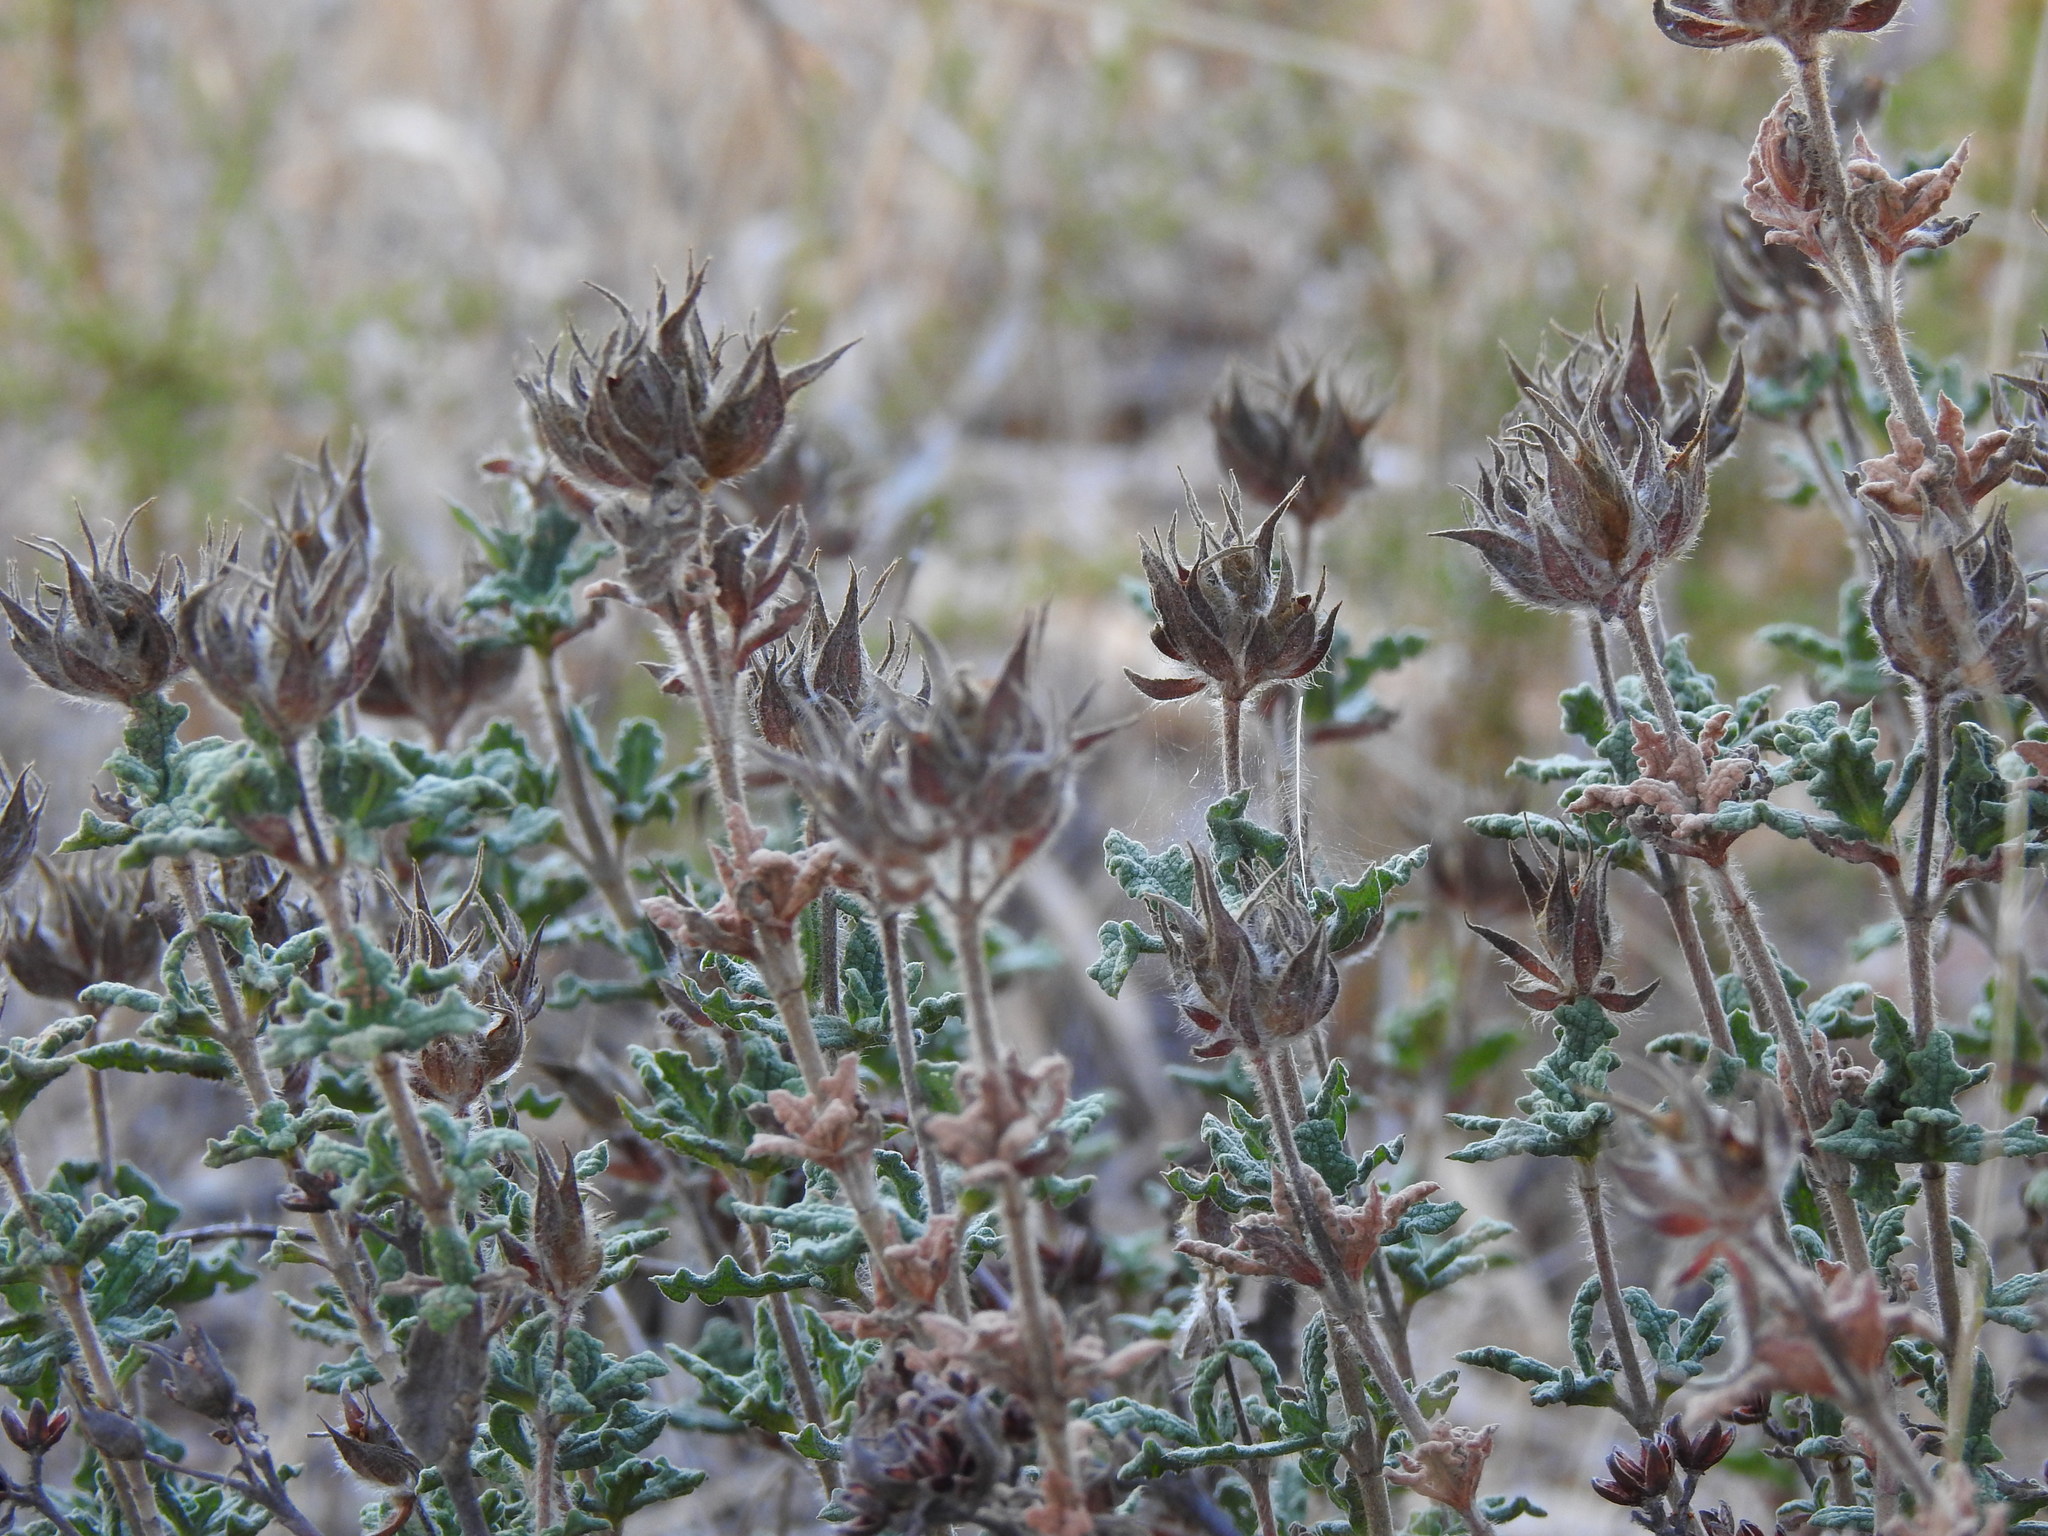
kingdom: Plantae
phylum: Tracheophyta
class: Magnoliopsida
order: Malvales
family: Cistaceae
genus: Cistus
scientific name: Cistus crispus
